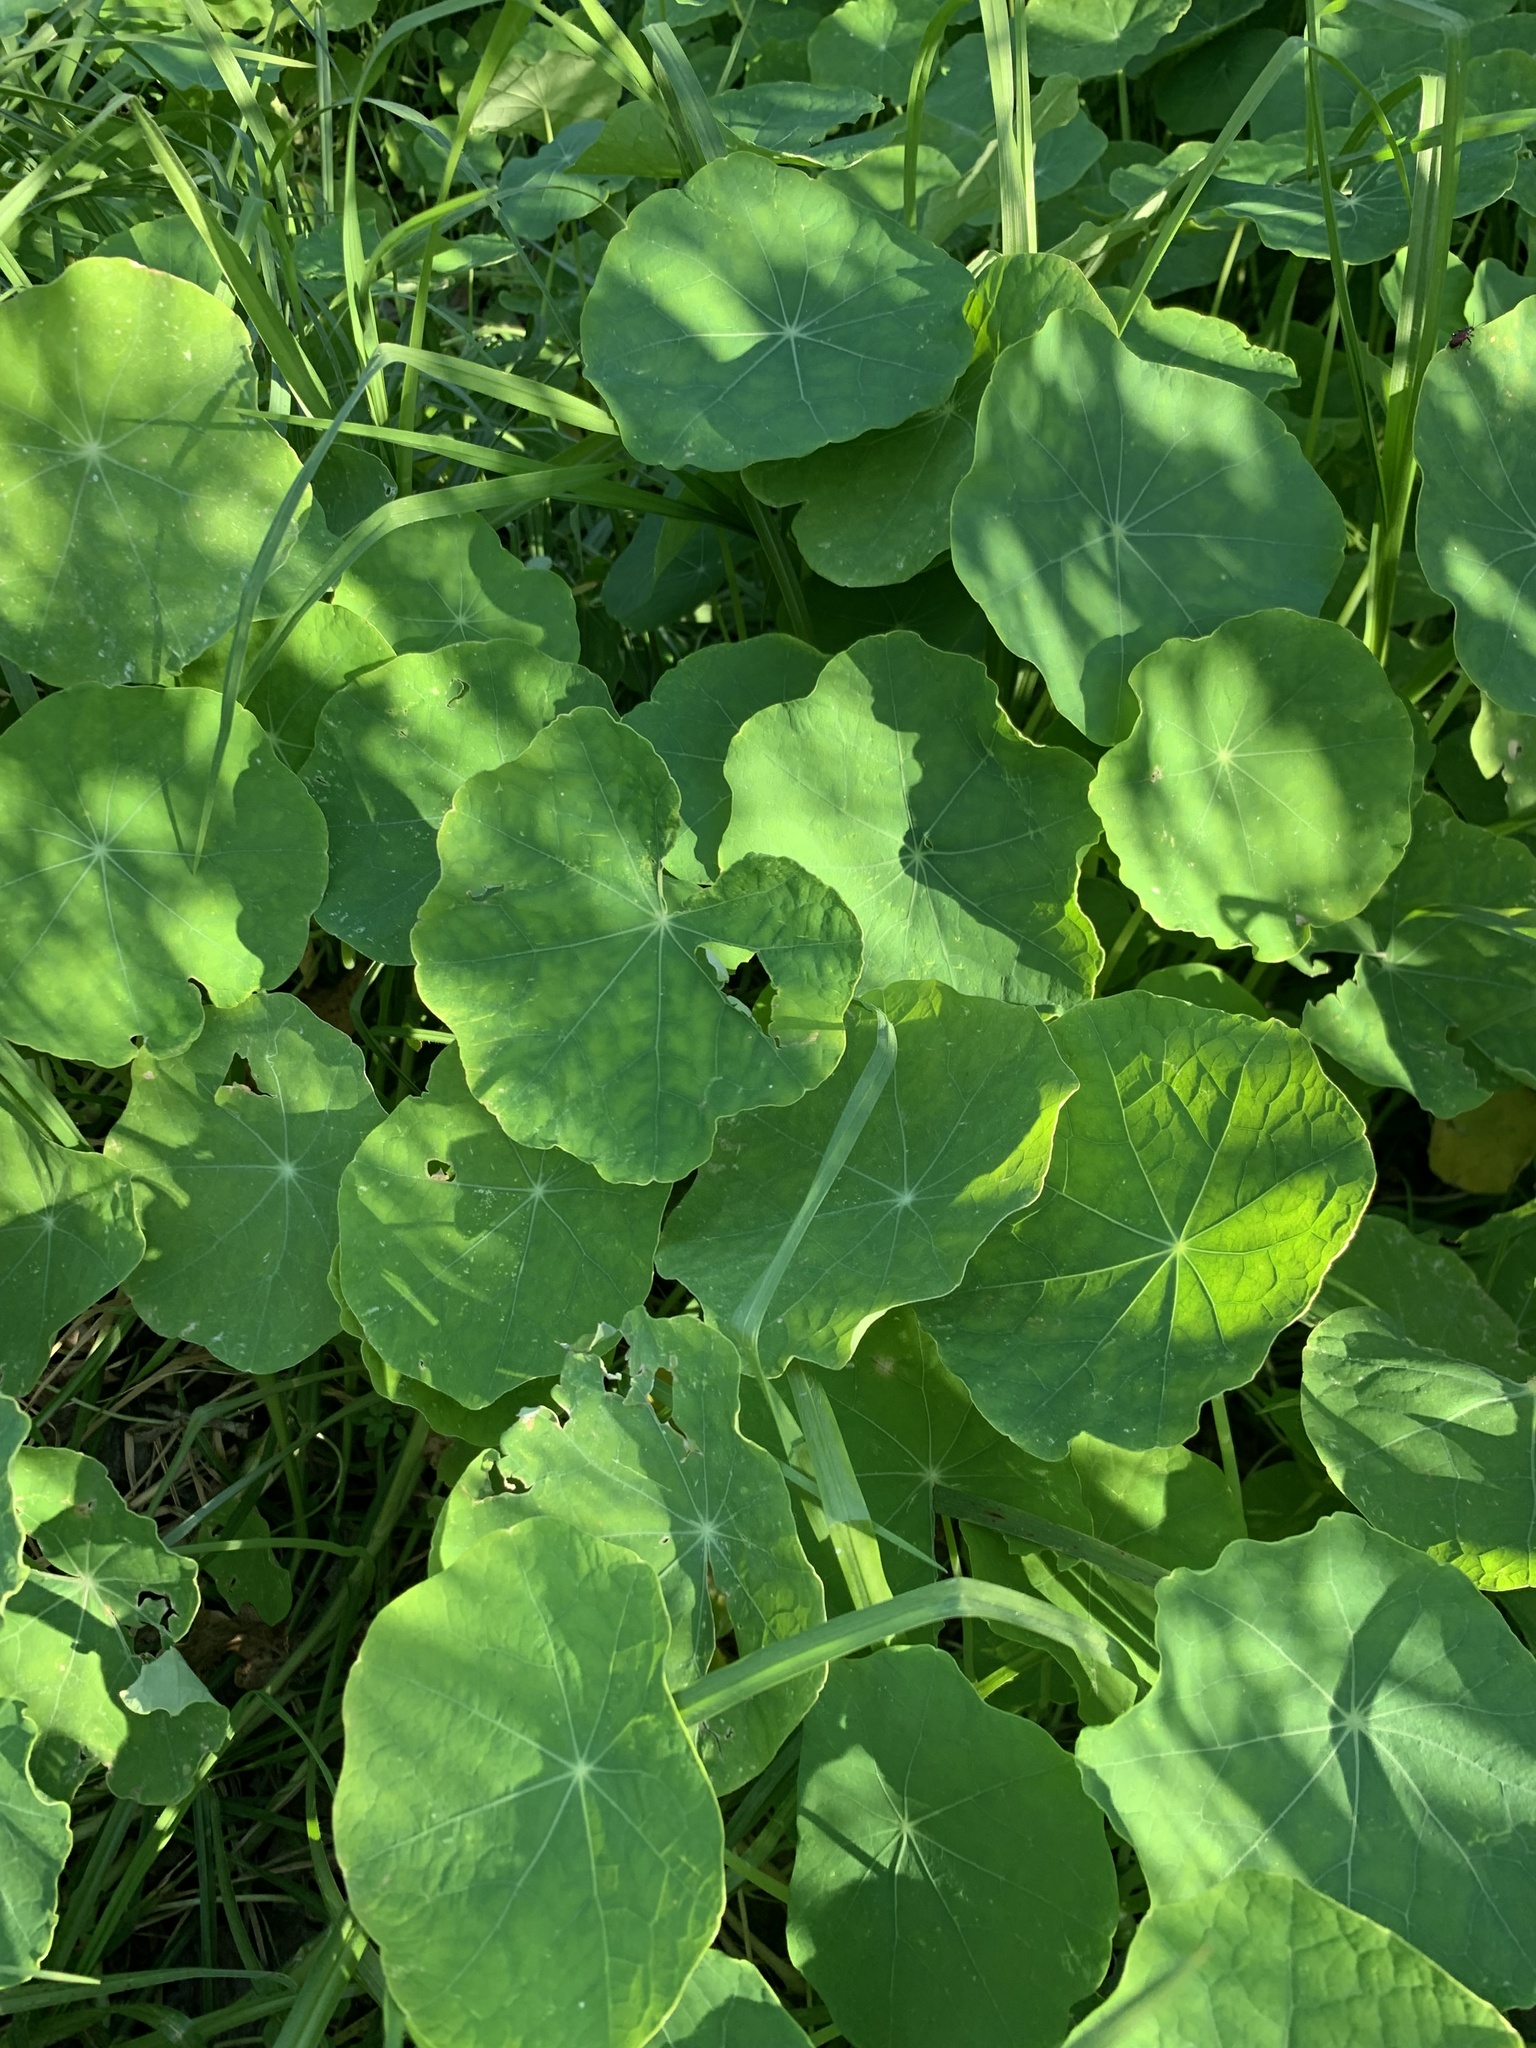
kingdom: Plantae
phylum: Tracheophyta
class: Magnoliopsida
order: Brassicales
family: Tropaeolaceae
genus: Tropaeolum
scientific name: Tropaeolum majus
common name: Nasturtium
